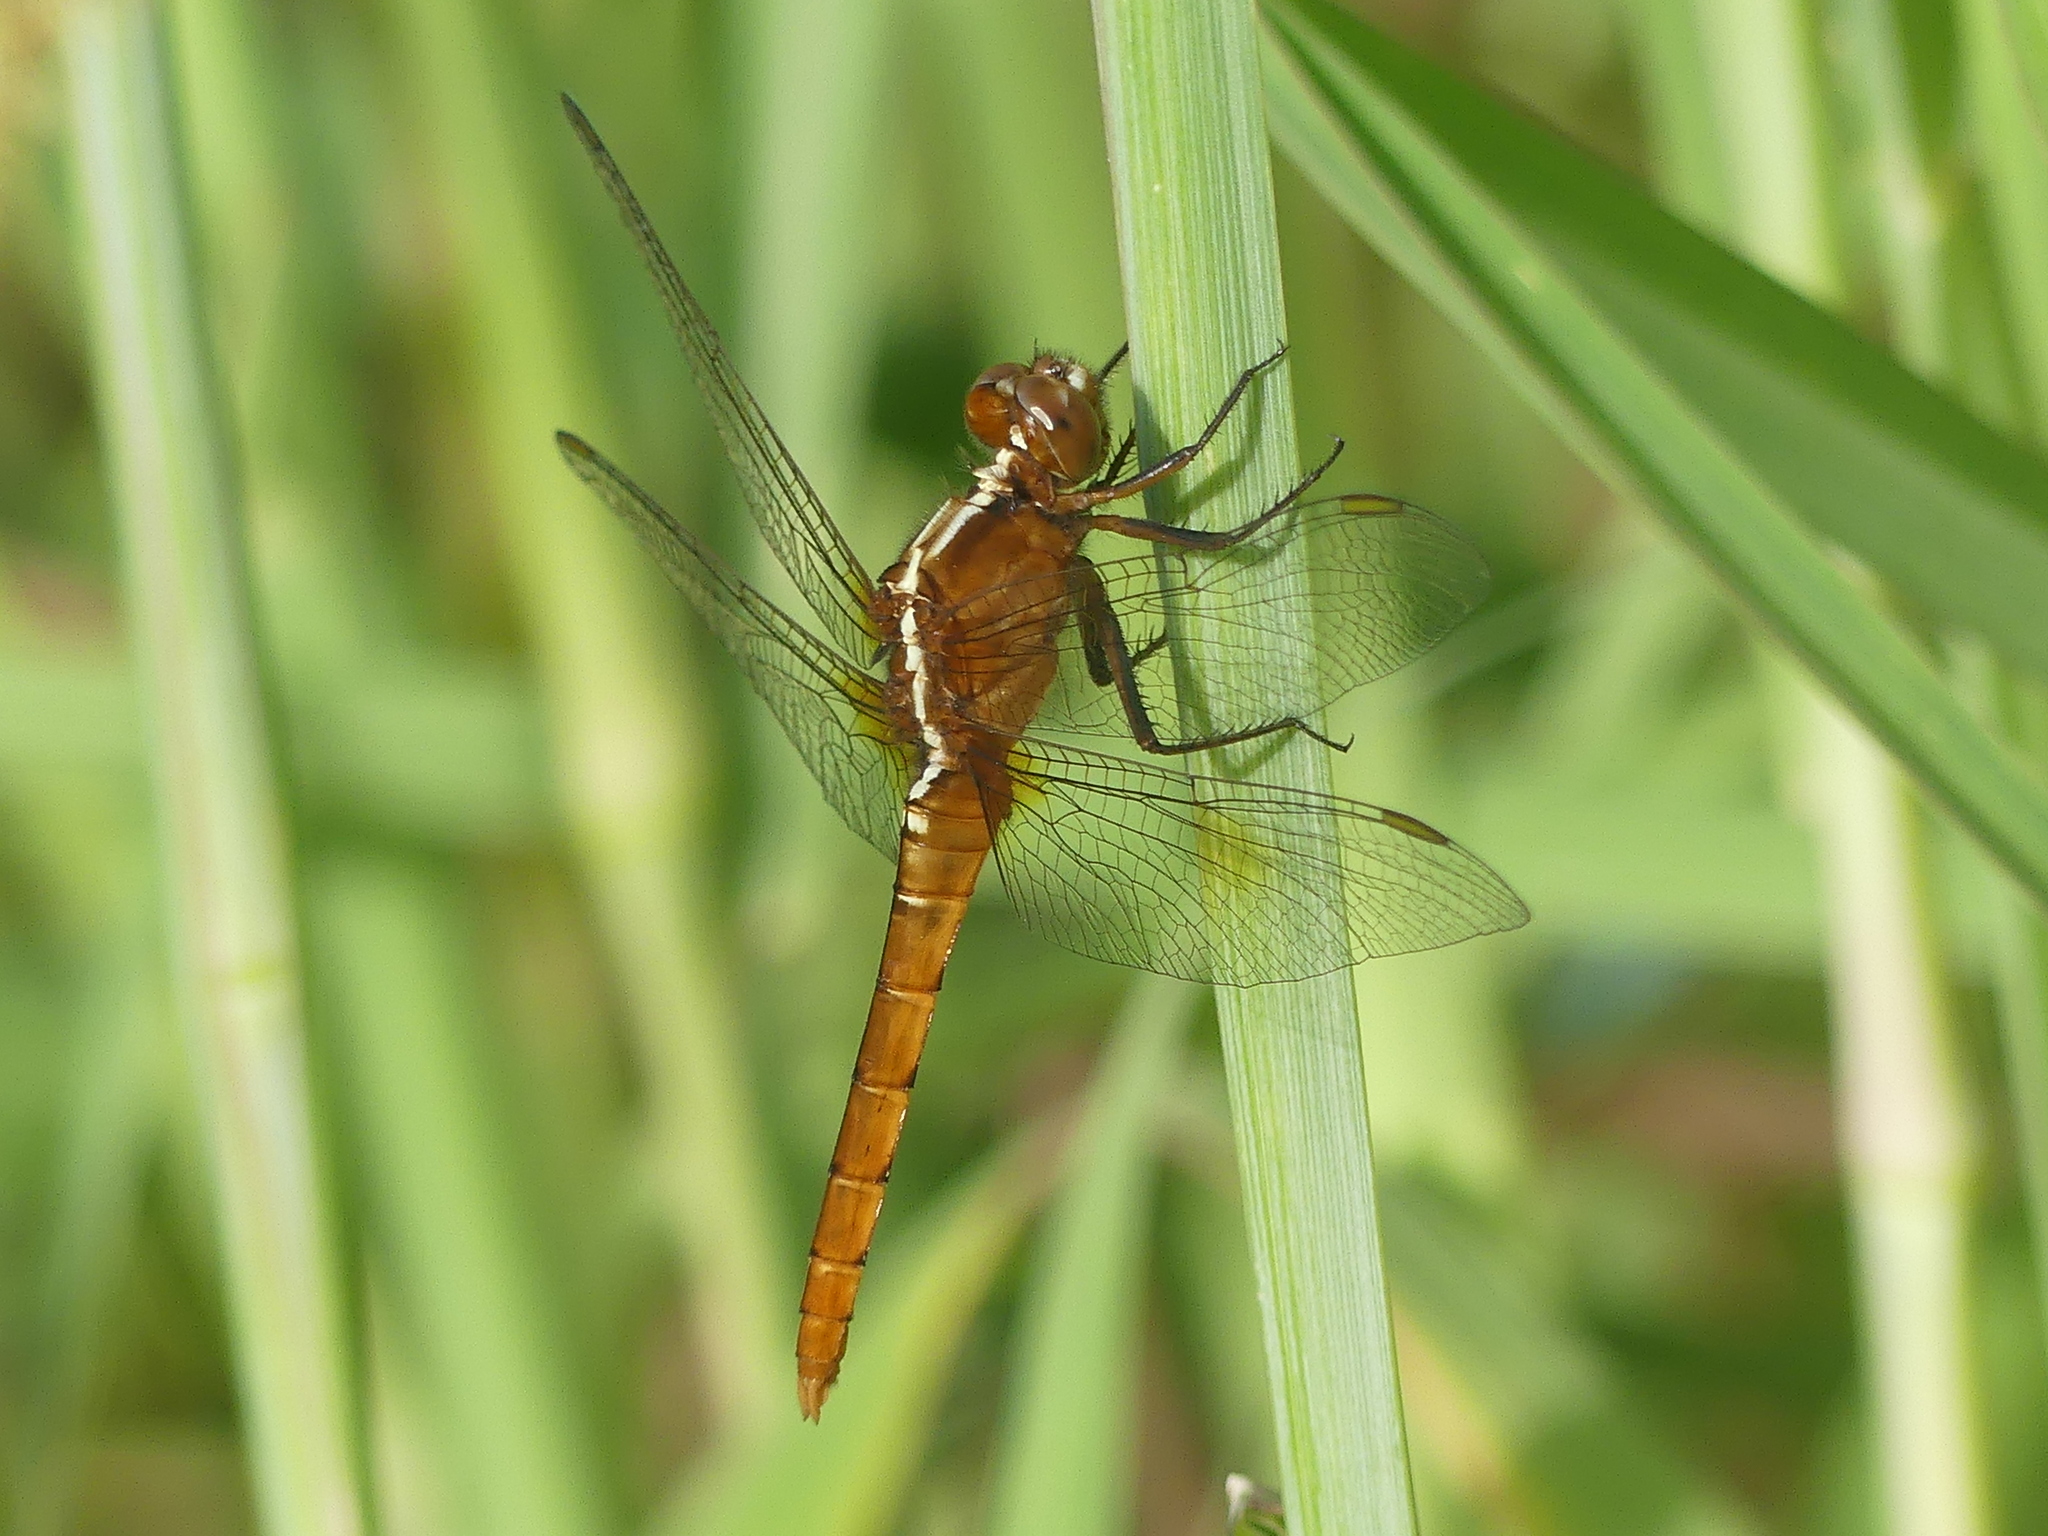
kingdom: Animalia
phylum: Arthropoda
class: Insecta
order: Odonata
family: Libellulidae
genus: Rhodothemis
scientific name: Rhodothemis lieftincki
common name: Red arrow
